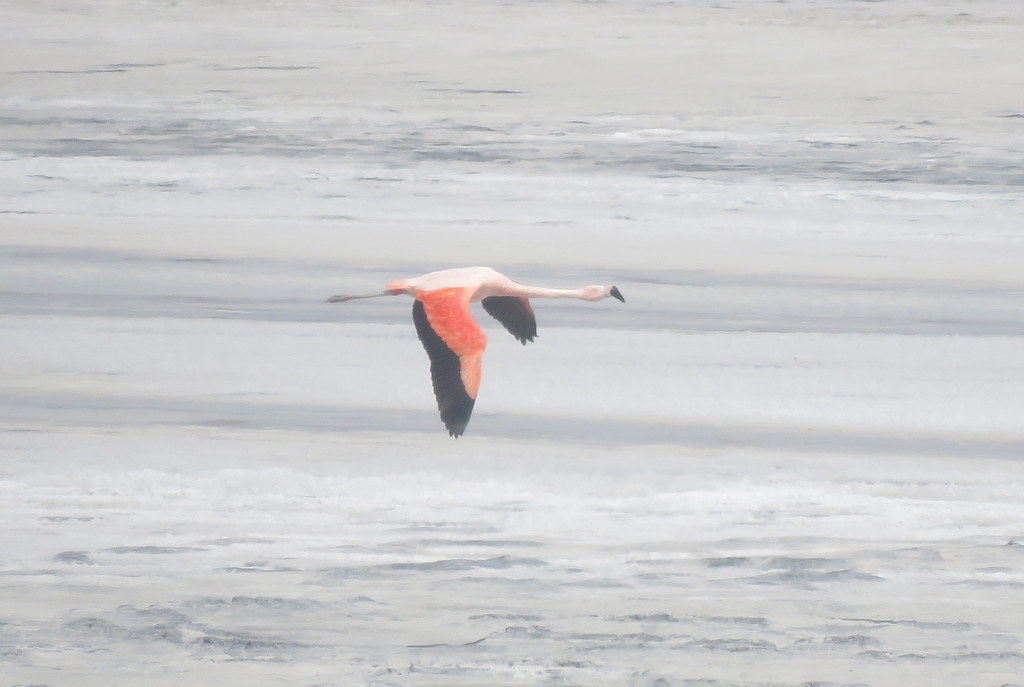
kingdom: Animalia
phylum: Chordata
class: Aves
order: Phoenicopteriformes
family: Phoenicopteridae
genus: Phoenicopterus
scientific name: Phoenicopterus chilensis
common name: Chilean flamingo
